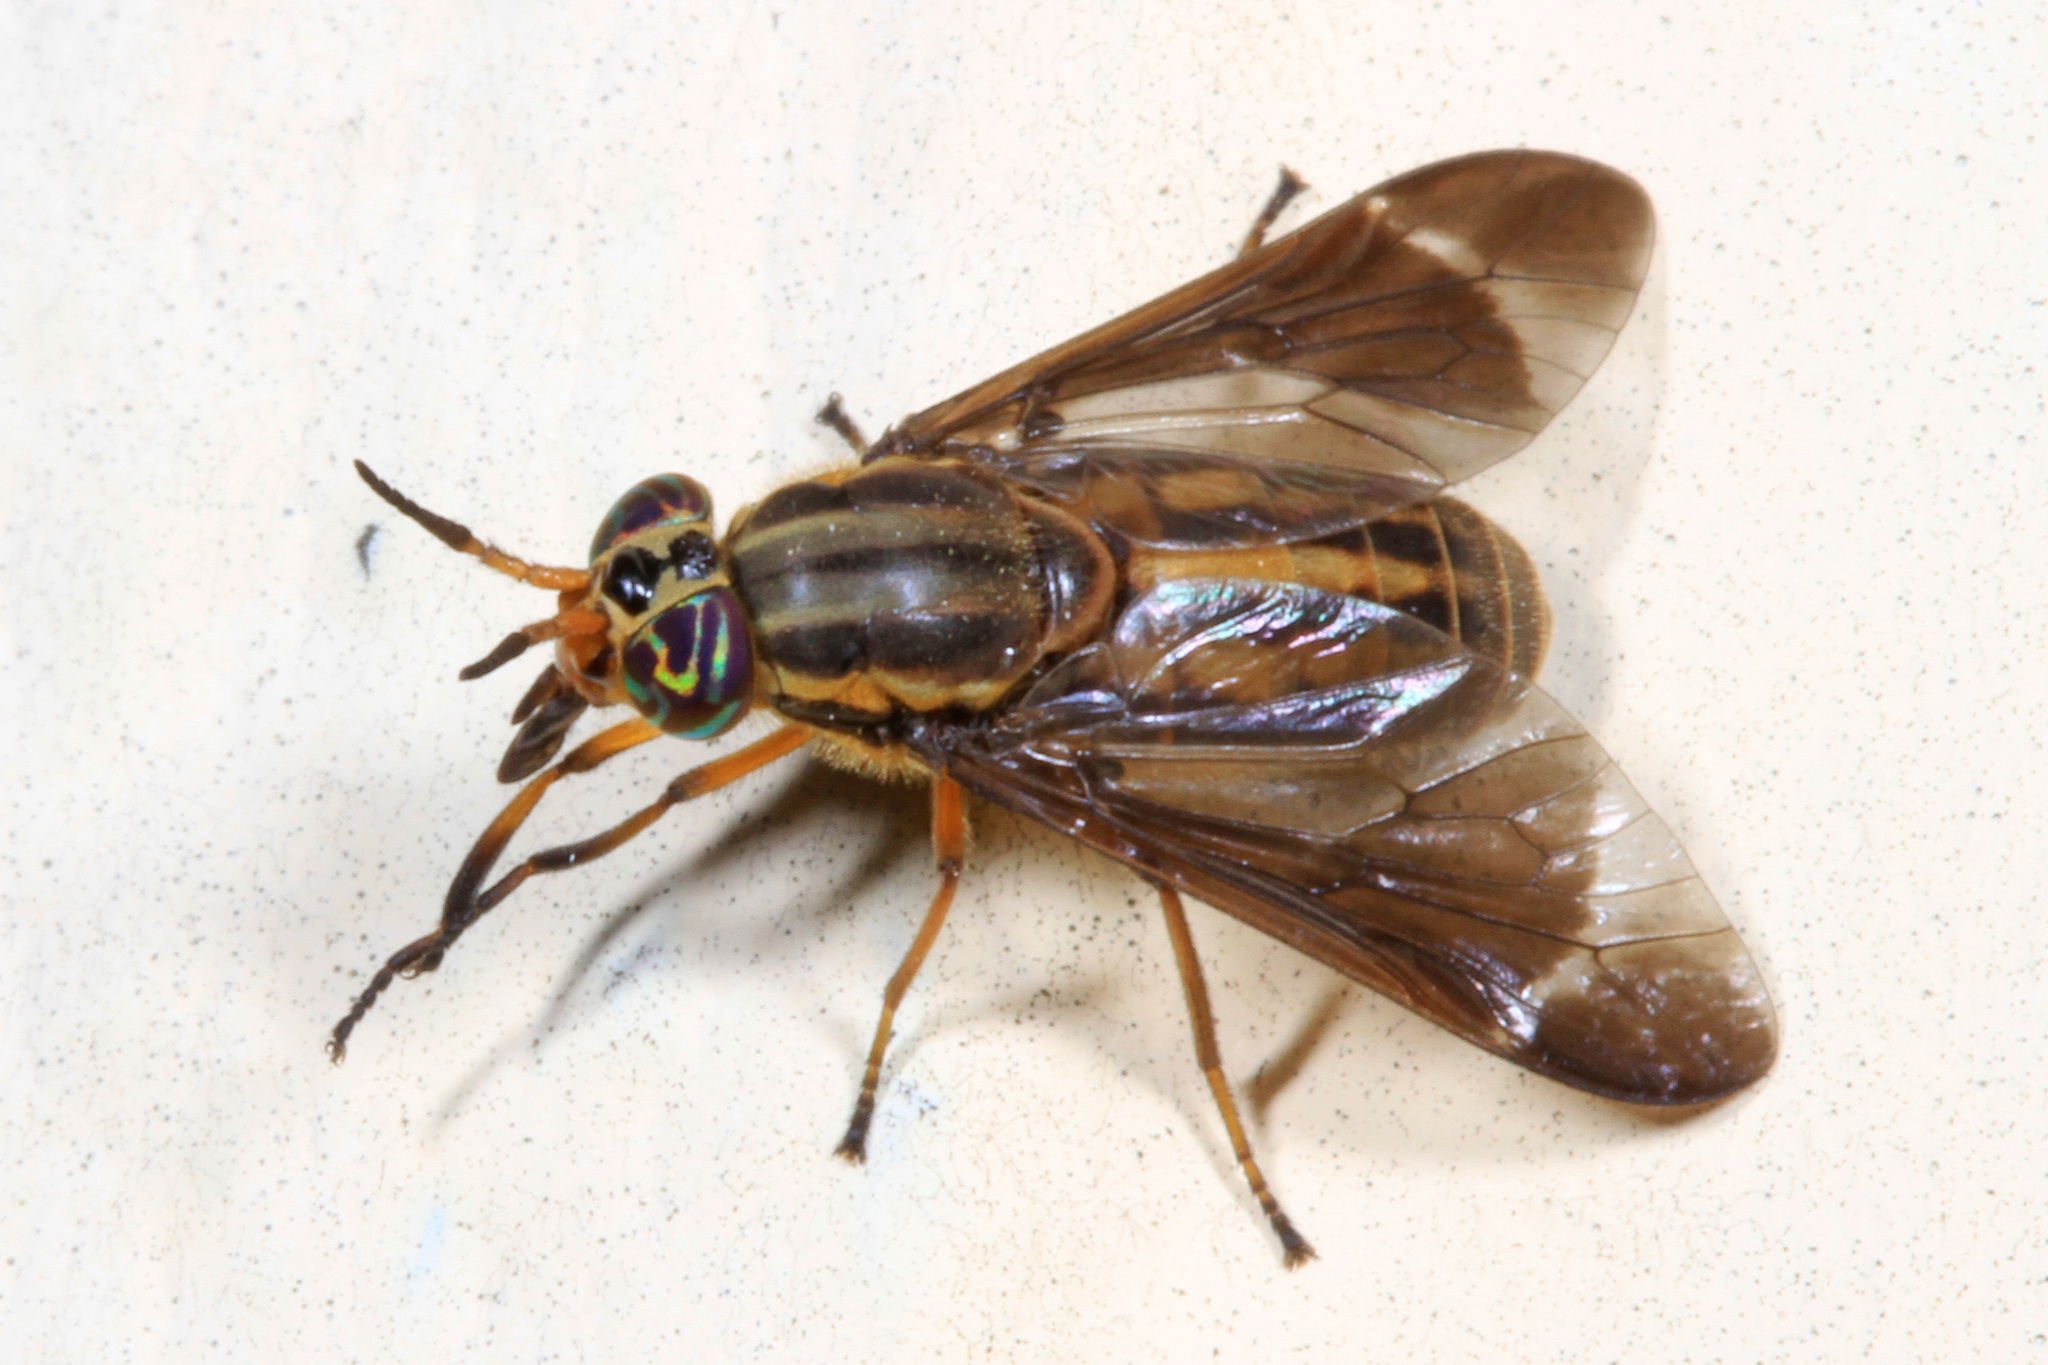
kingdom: Animalia
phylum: Arthropoda
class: Insecta
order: Diptera
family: Tabanidae
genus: Chrysops
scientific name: Chrysops sequax
